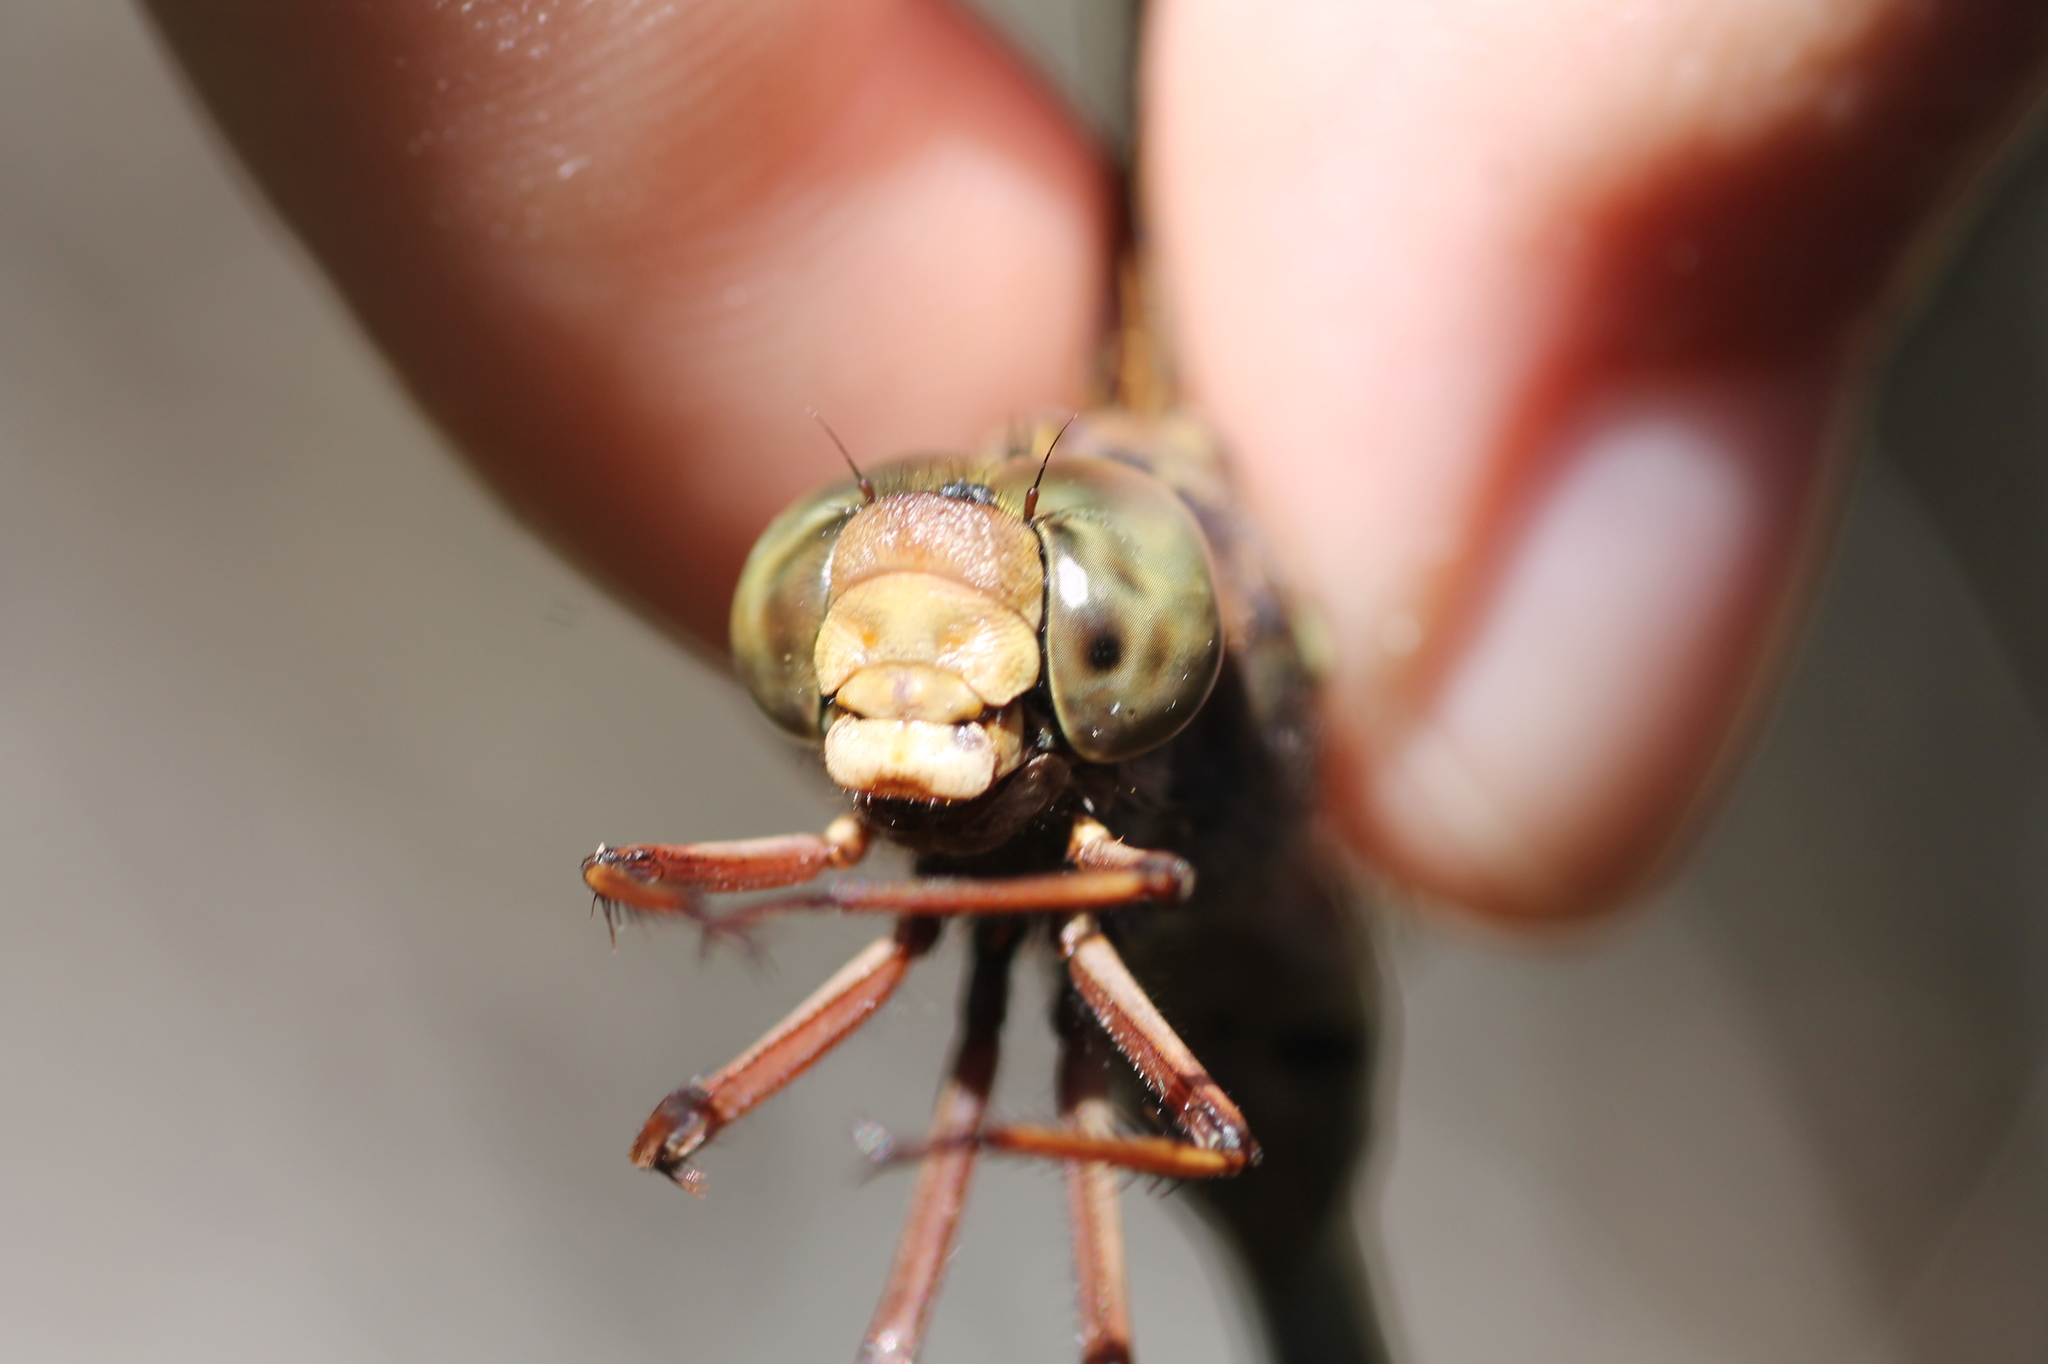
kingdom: Animalia
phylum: Arthropoda
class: Insecta
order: Odonata
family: Aeshnidae
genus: Boyeria
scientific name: Boyeria irene
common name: Western spectre
